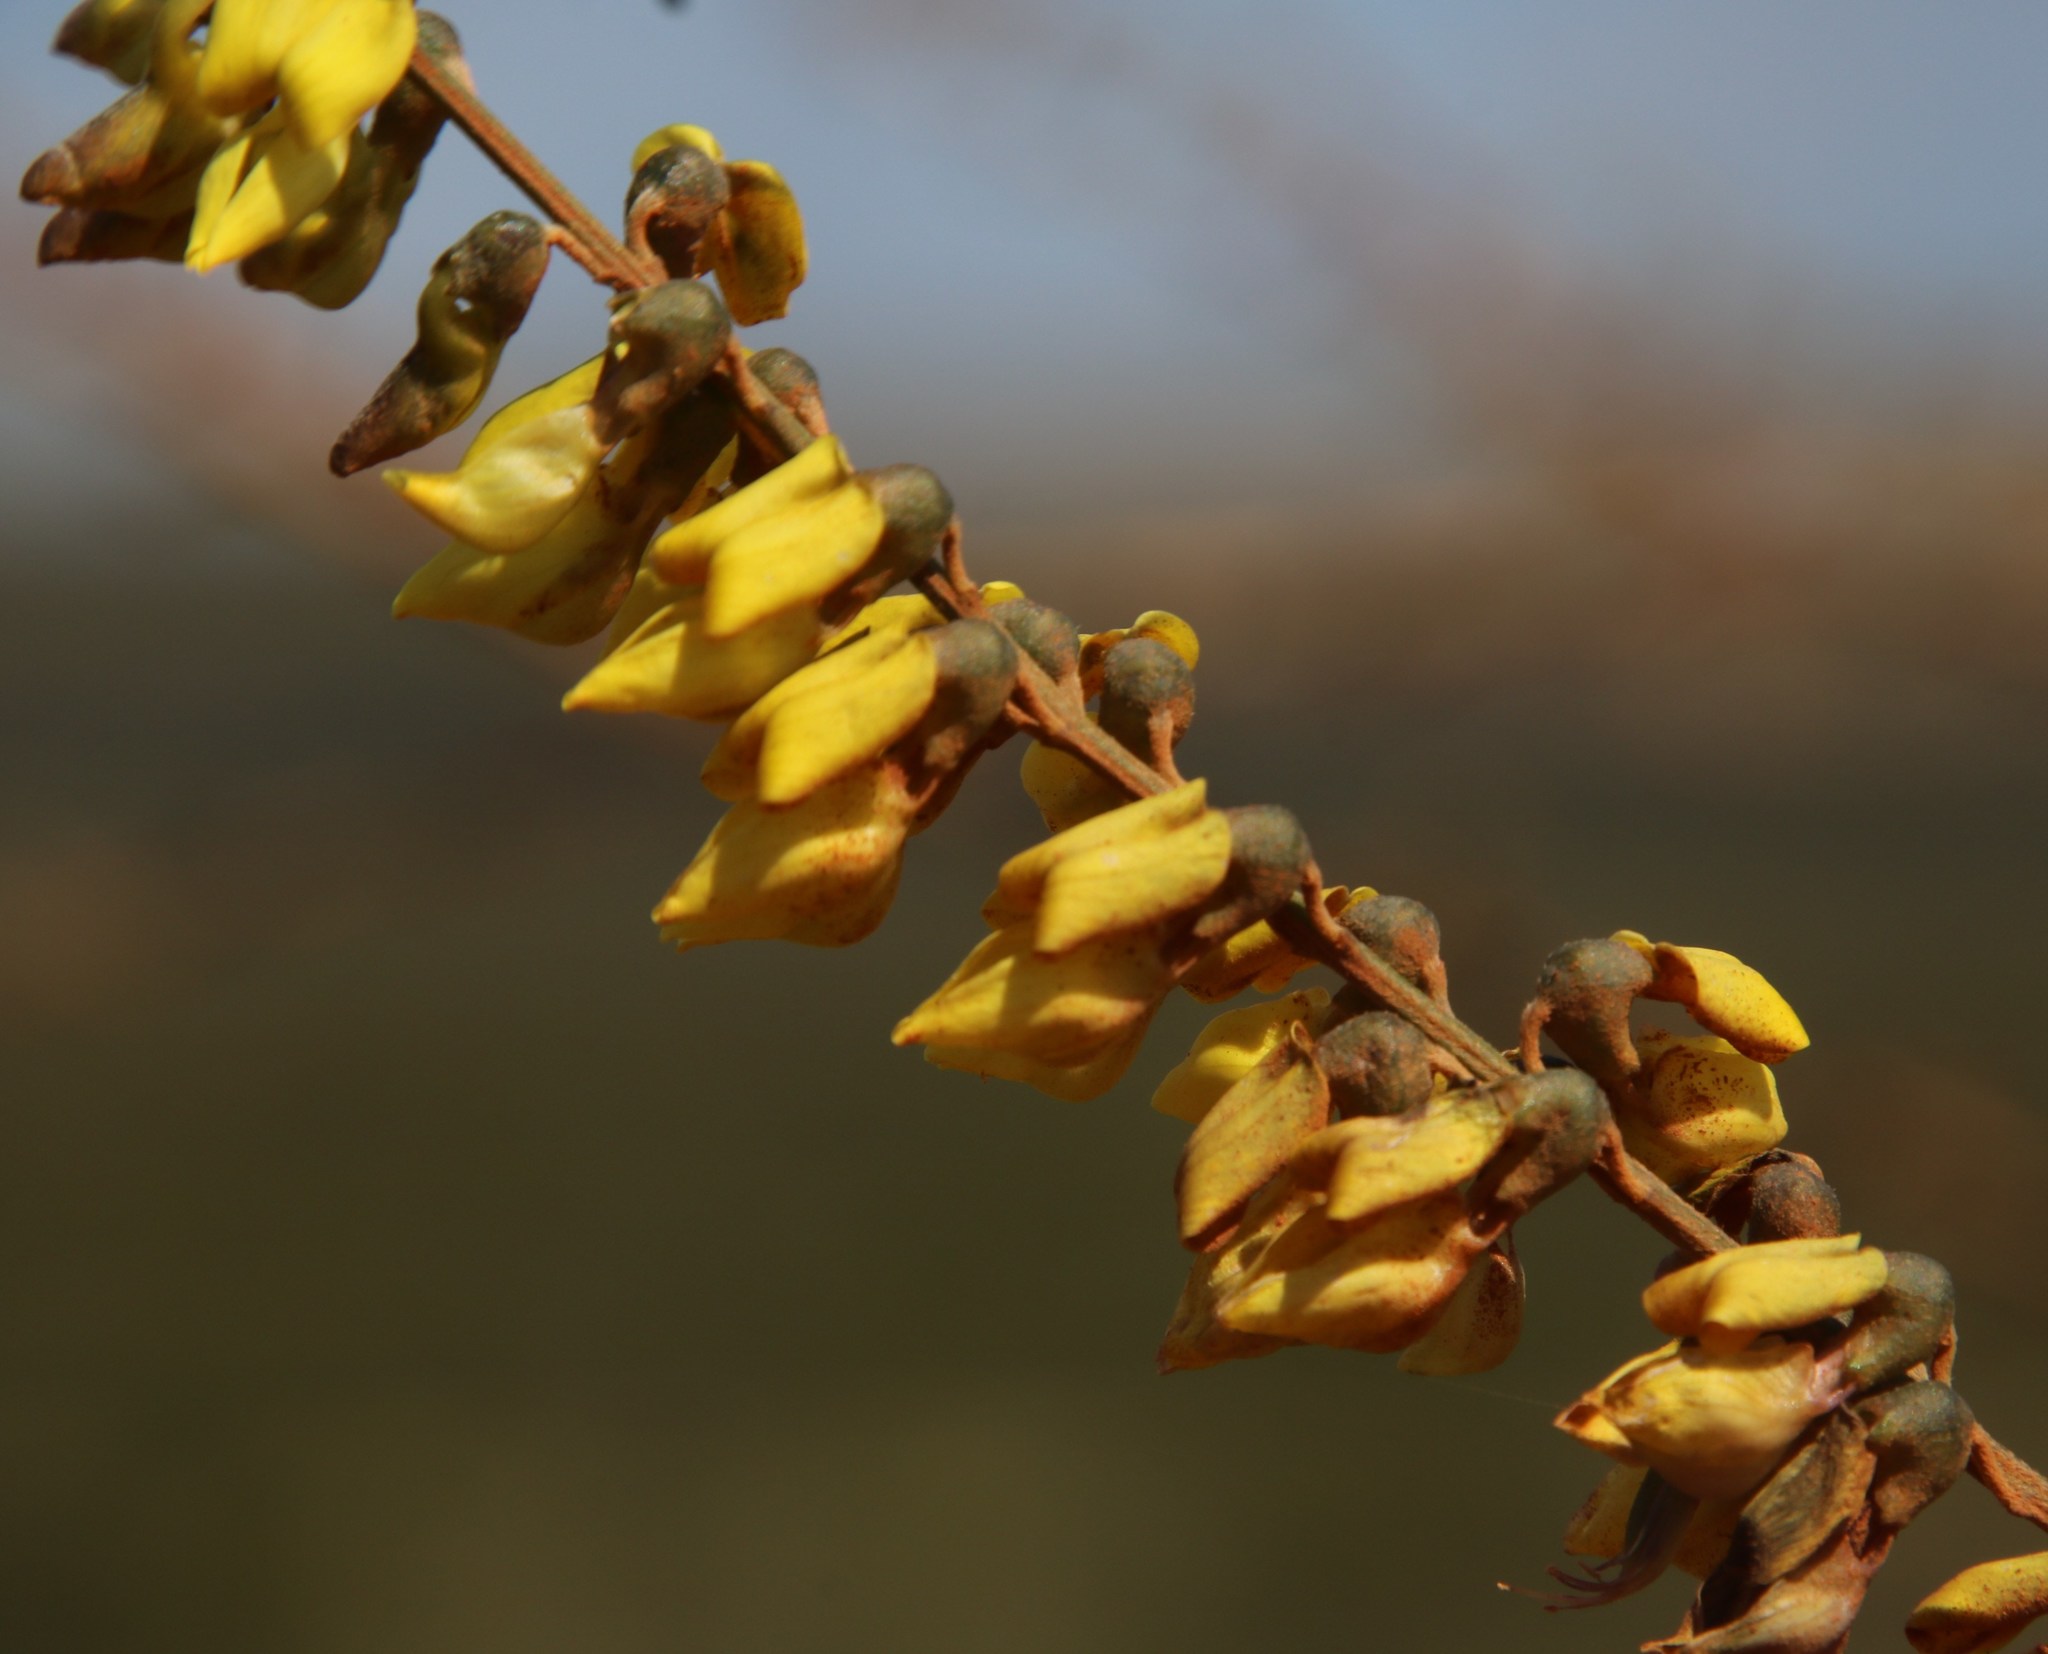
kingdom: Plantae
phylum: Tracheophyta
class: Magnoliopsida
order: Fabales
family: Fabaceae
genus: Wiborgia
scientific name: Wiborgia obcordata
